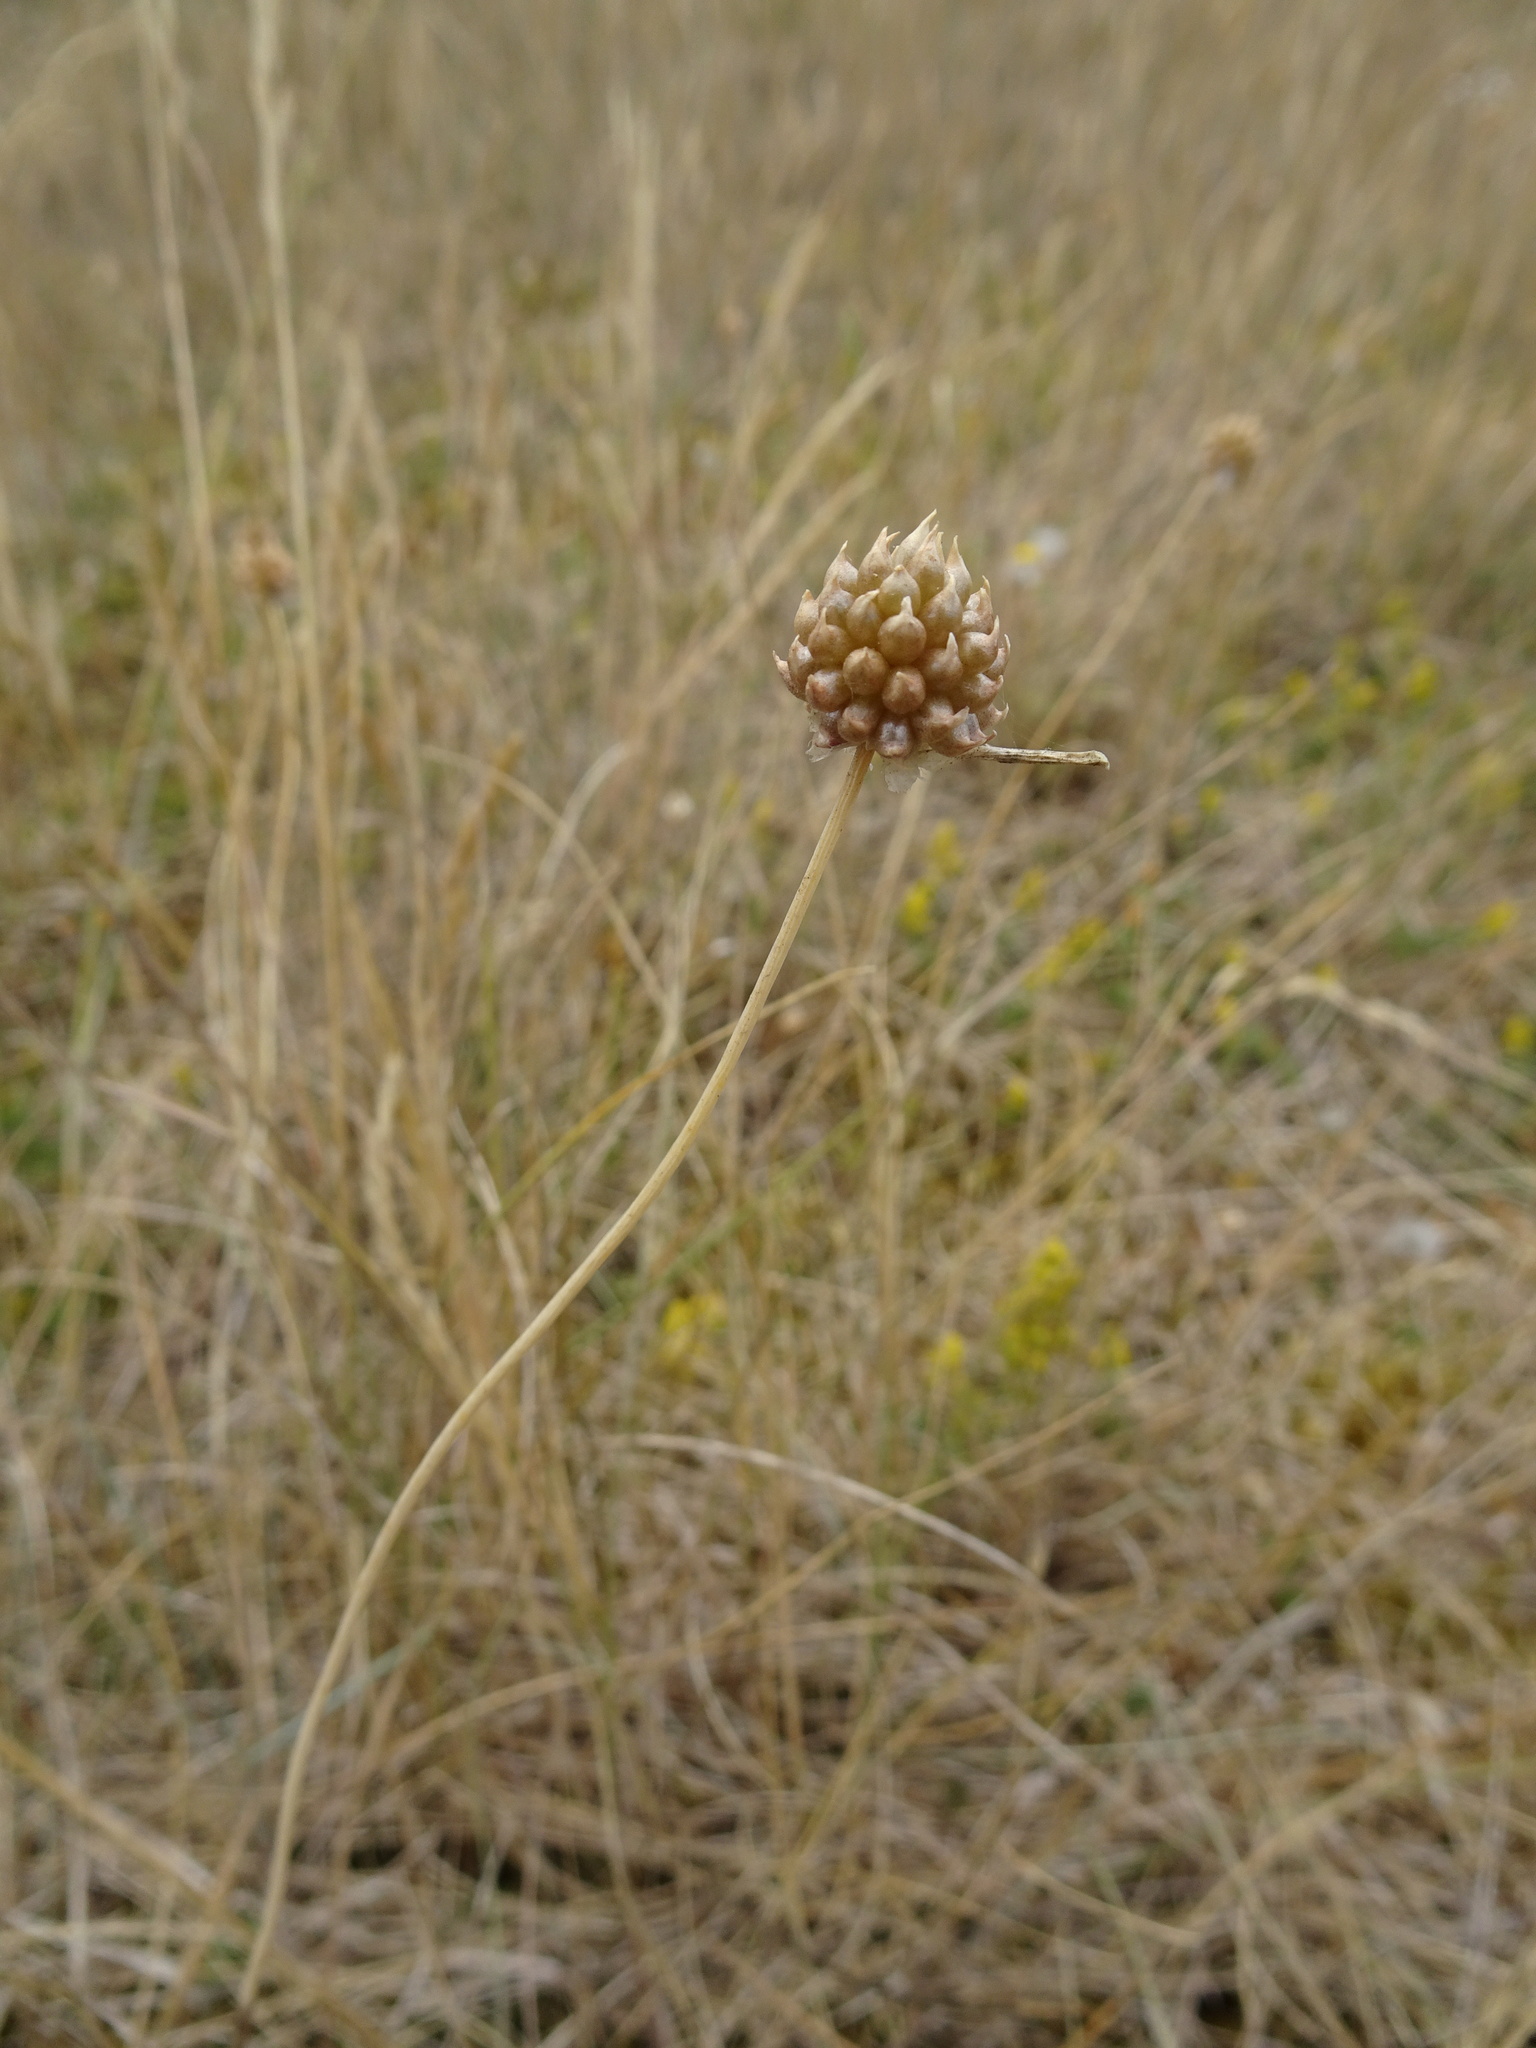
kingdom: Plantae
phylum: Tracheophyta
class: Liliopsida
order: Asparagales
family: Amaryllidaceae
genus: Allium
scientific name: Allium vineale
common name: Crow garlic
